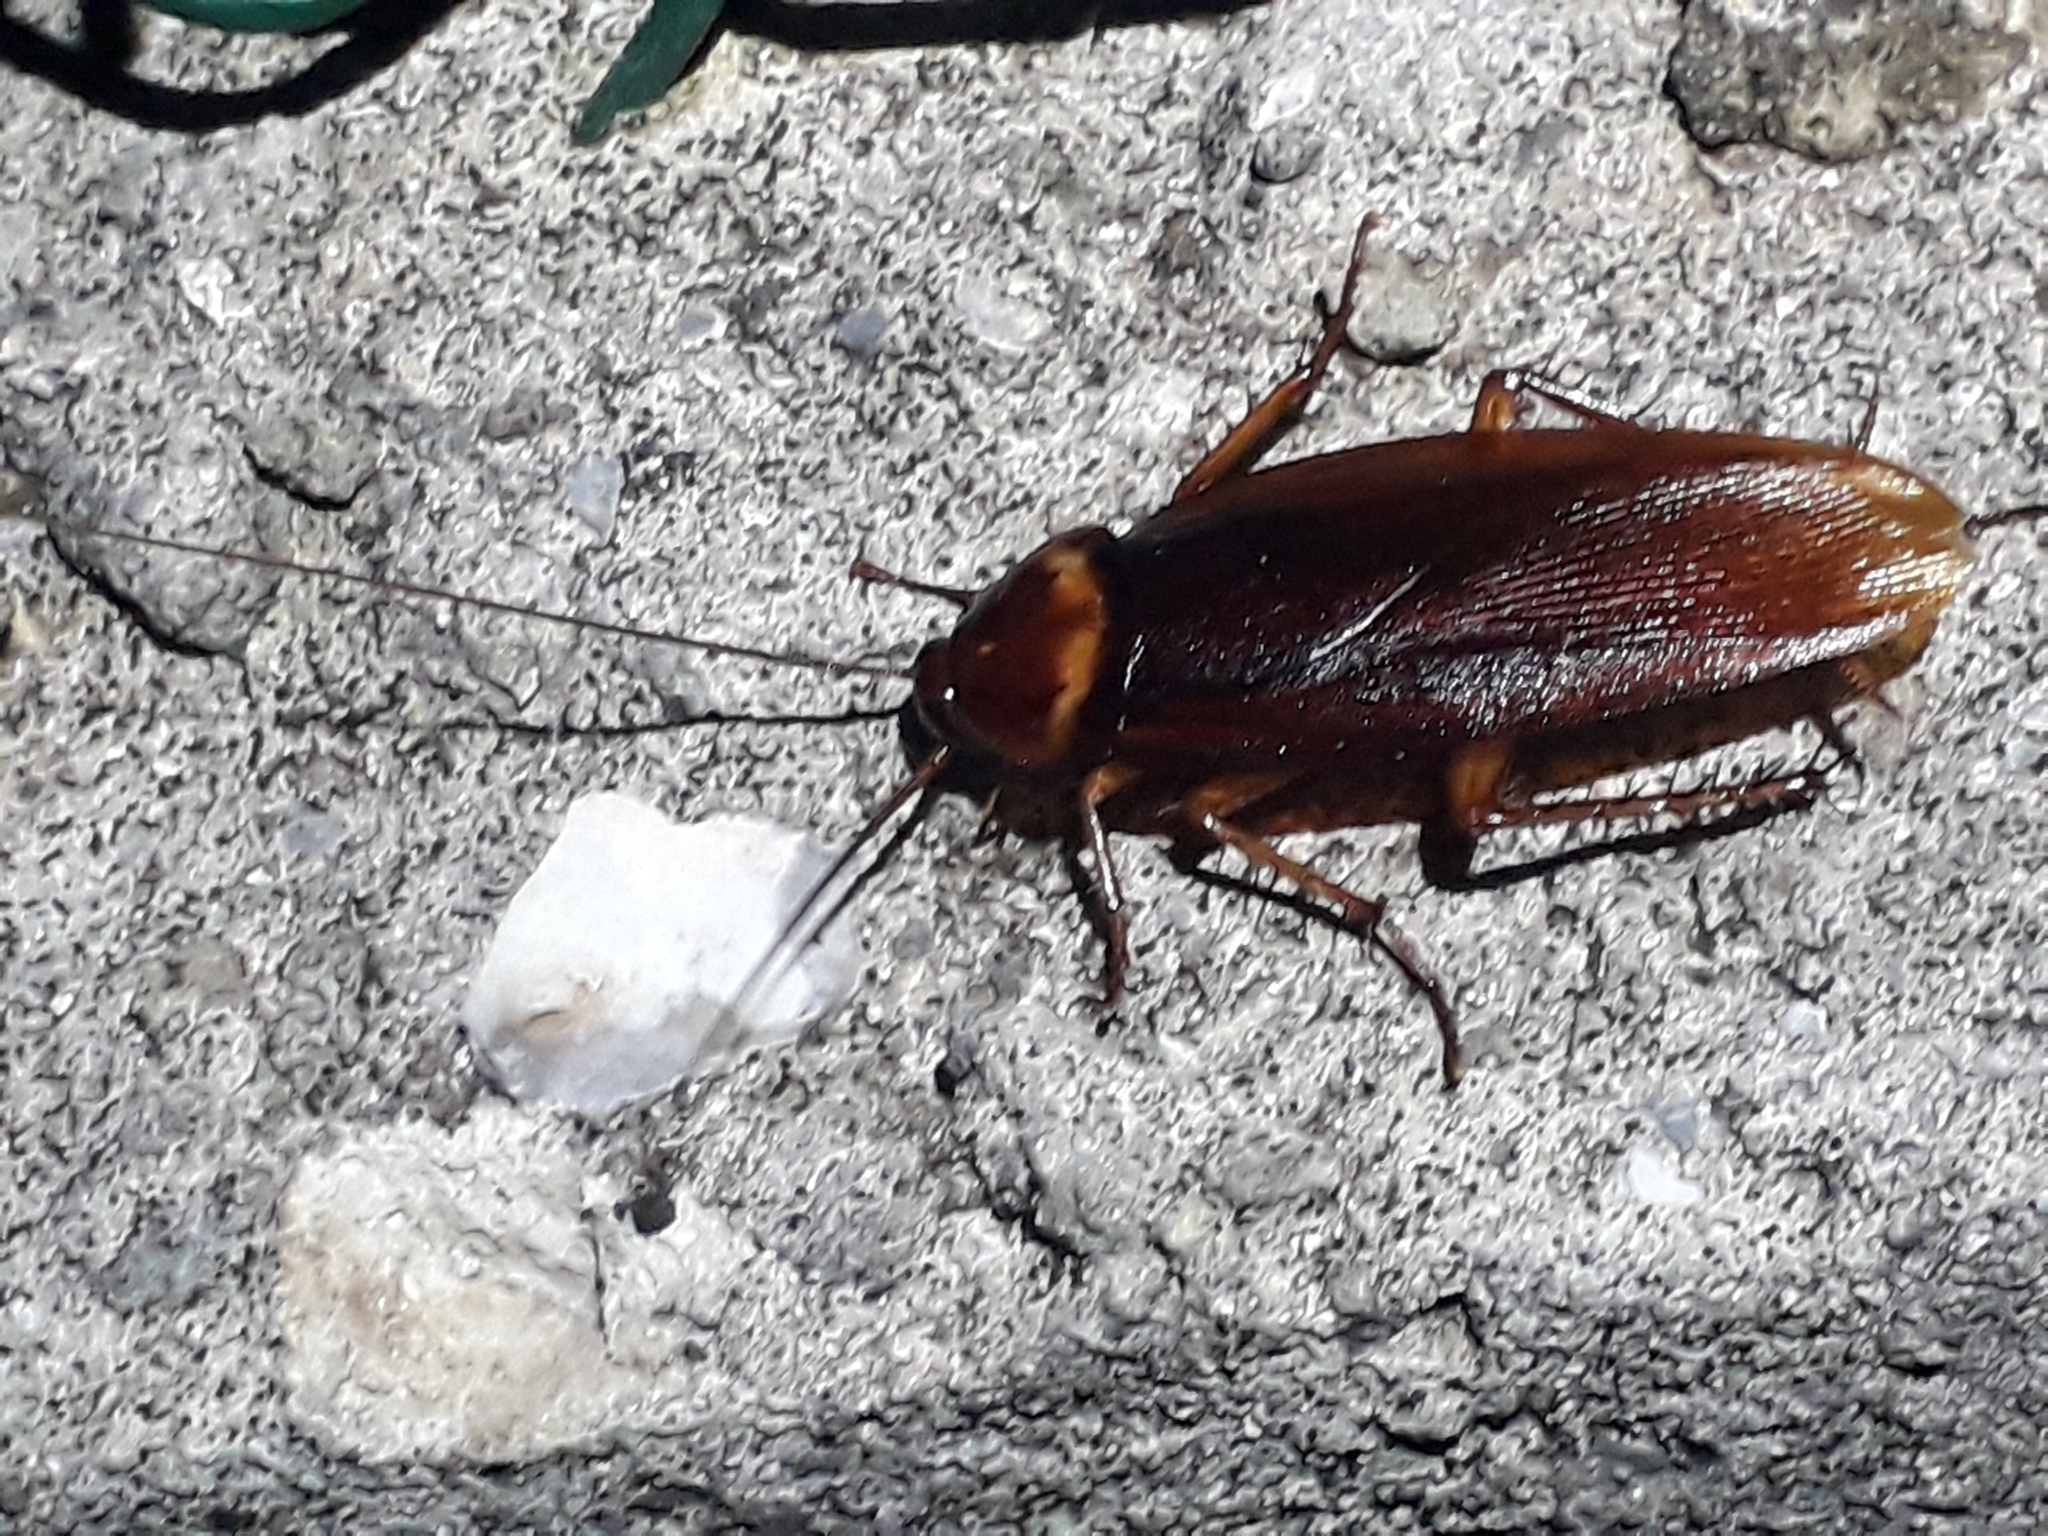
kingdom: Animalia
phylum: Arthropoda
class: Insecta
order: Blattodea
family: Blattidae
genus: Periplaneta
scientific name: Periplaneta americana
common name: American cockroach
